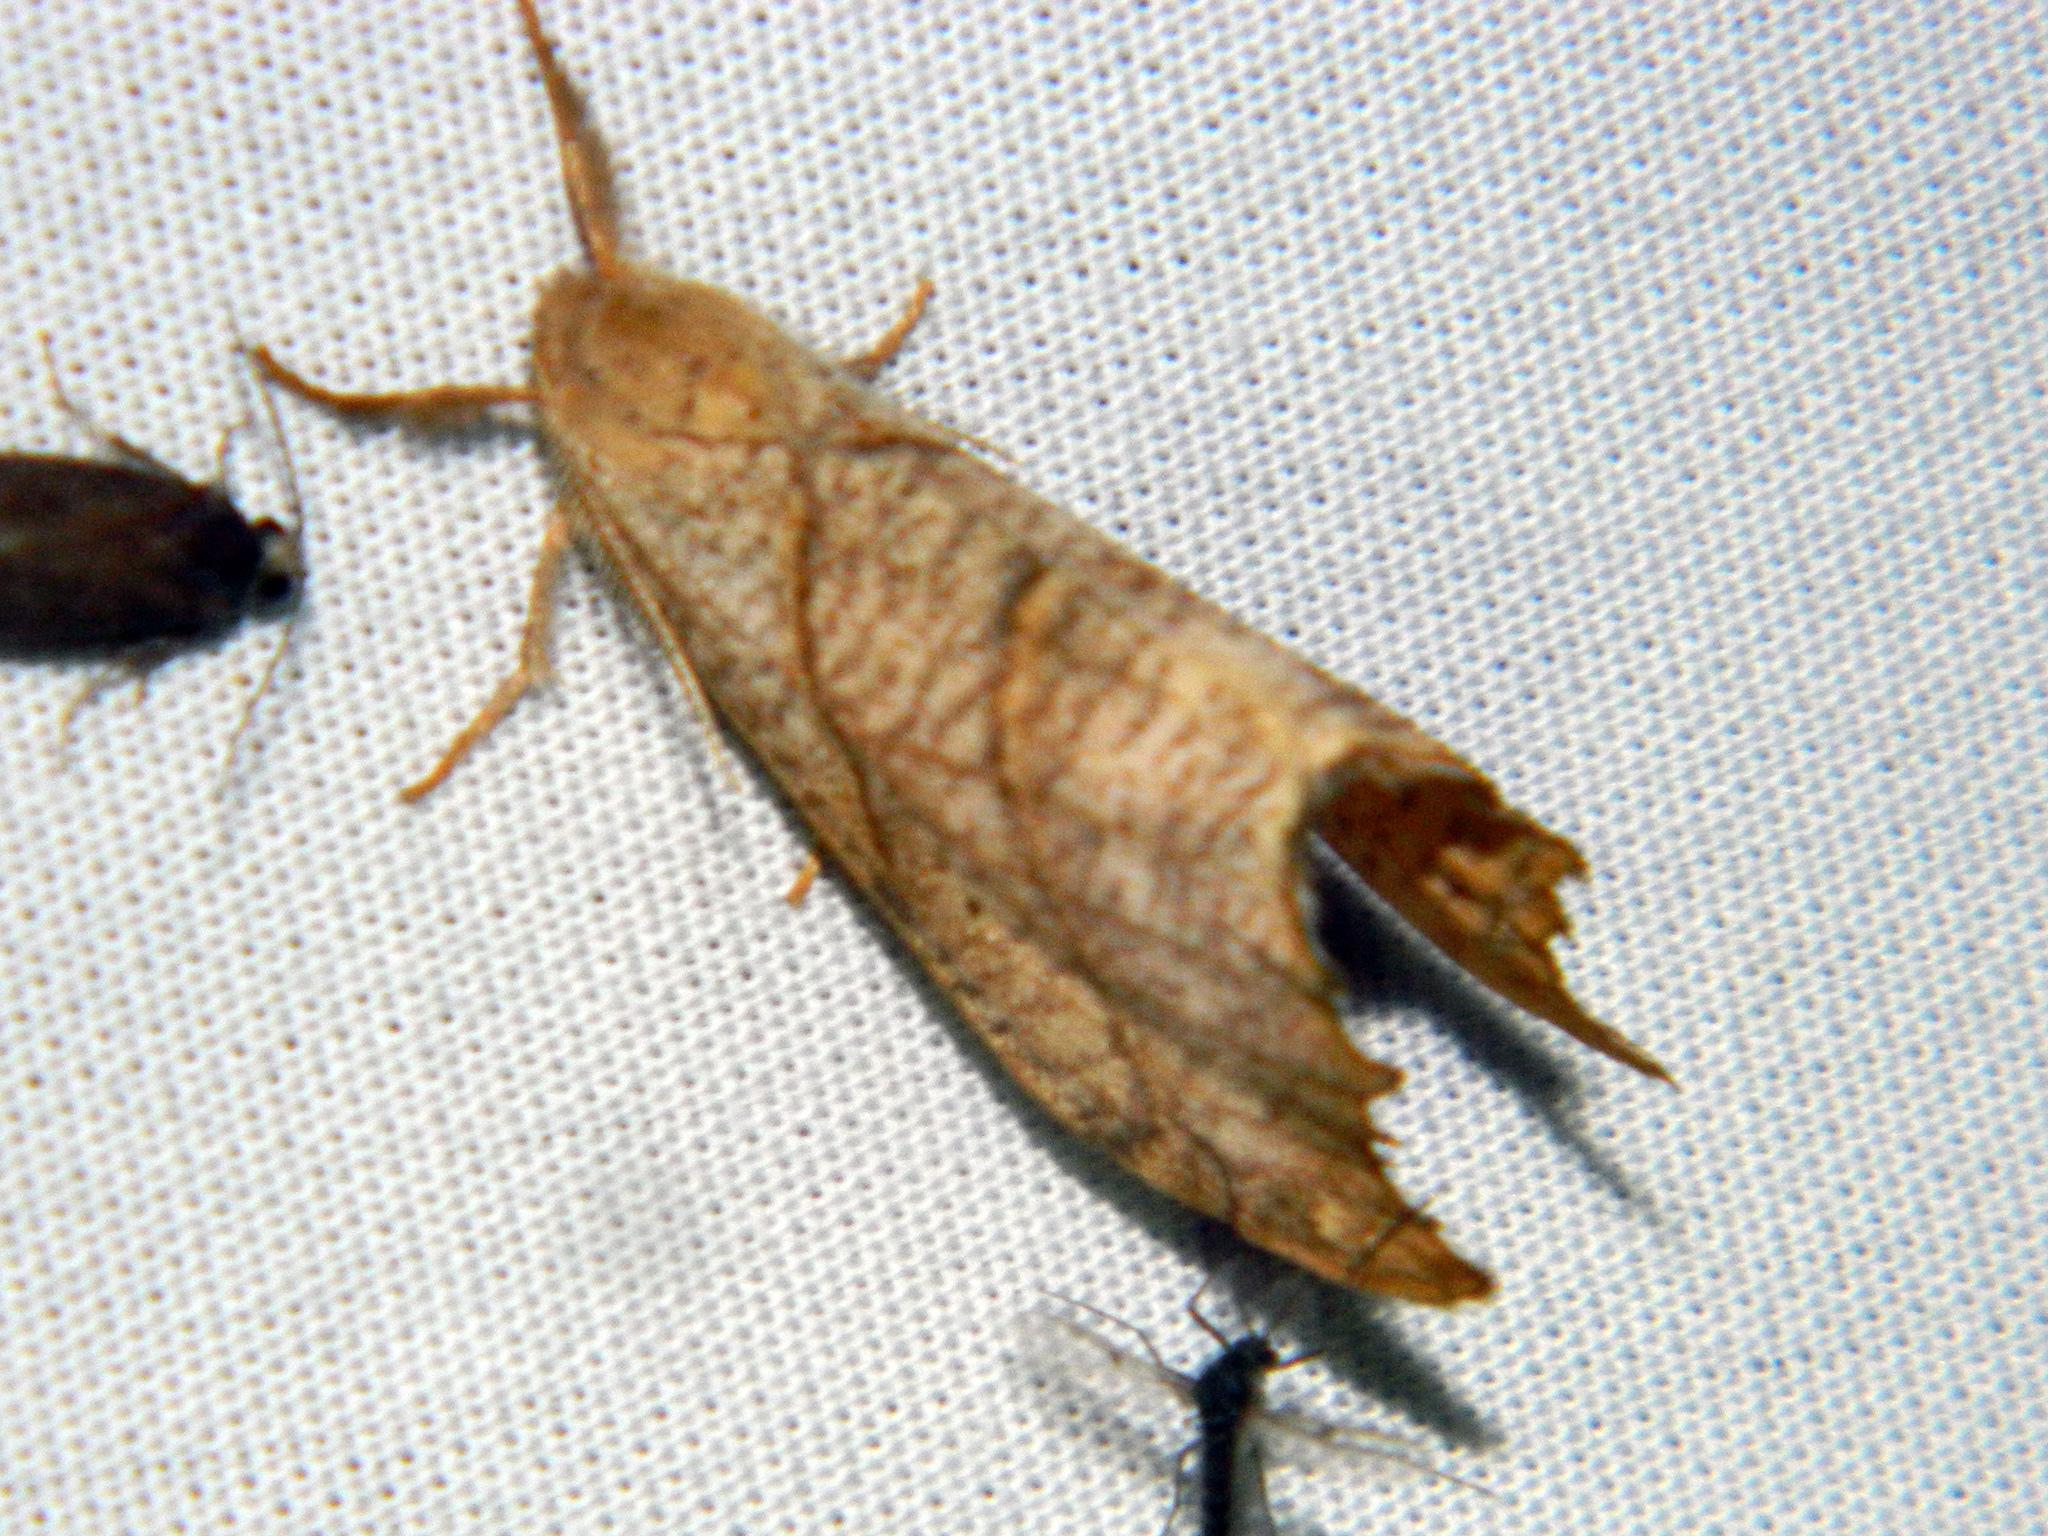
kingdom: Animalia
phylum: Arthropoda
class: Insecta
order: Lepidoptera
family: Drepanidae
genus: Falcaria
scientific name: Falcaria bilineata
